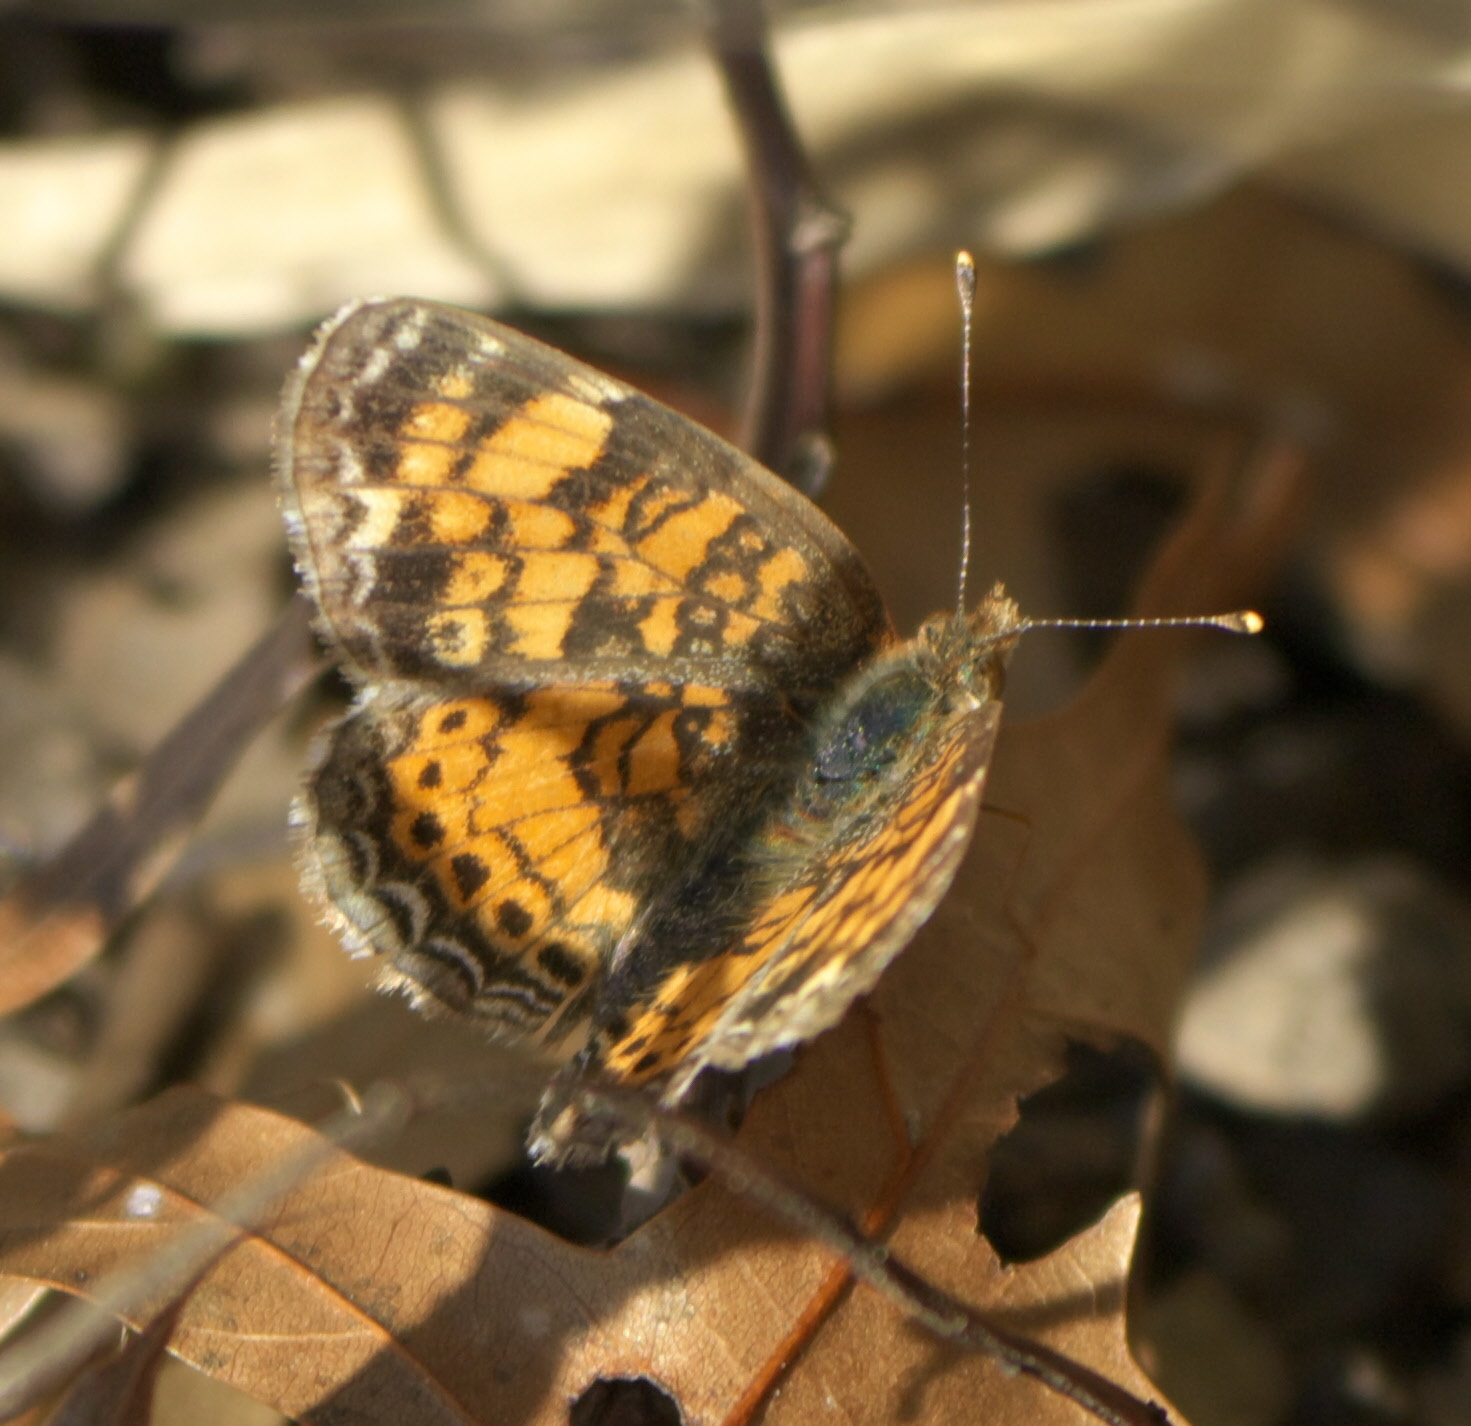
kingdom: Animalia
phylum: Arthropoda
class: Insecta
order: Lepidoptera
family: Nymphalidae
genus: Phyciodes
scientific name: Phyciodes tharos
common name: Pearl crescent
